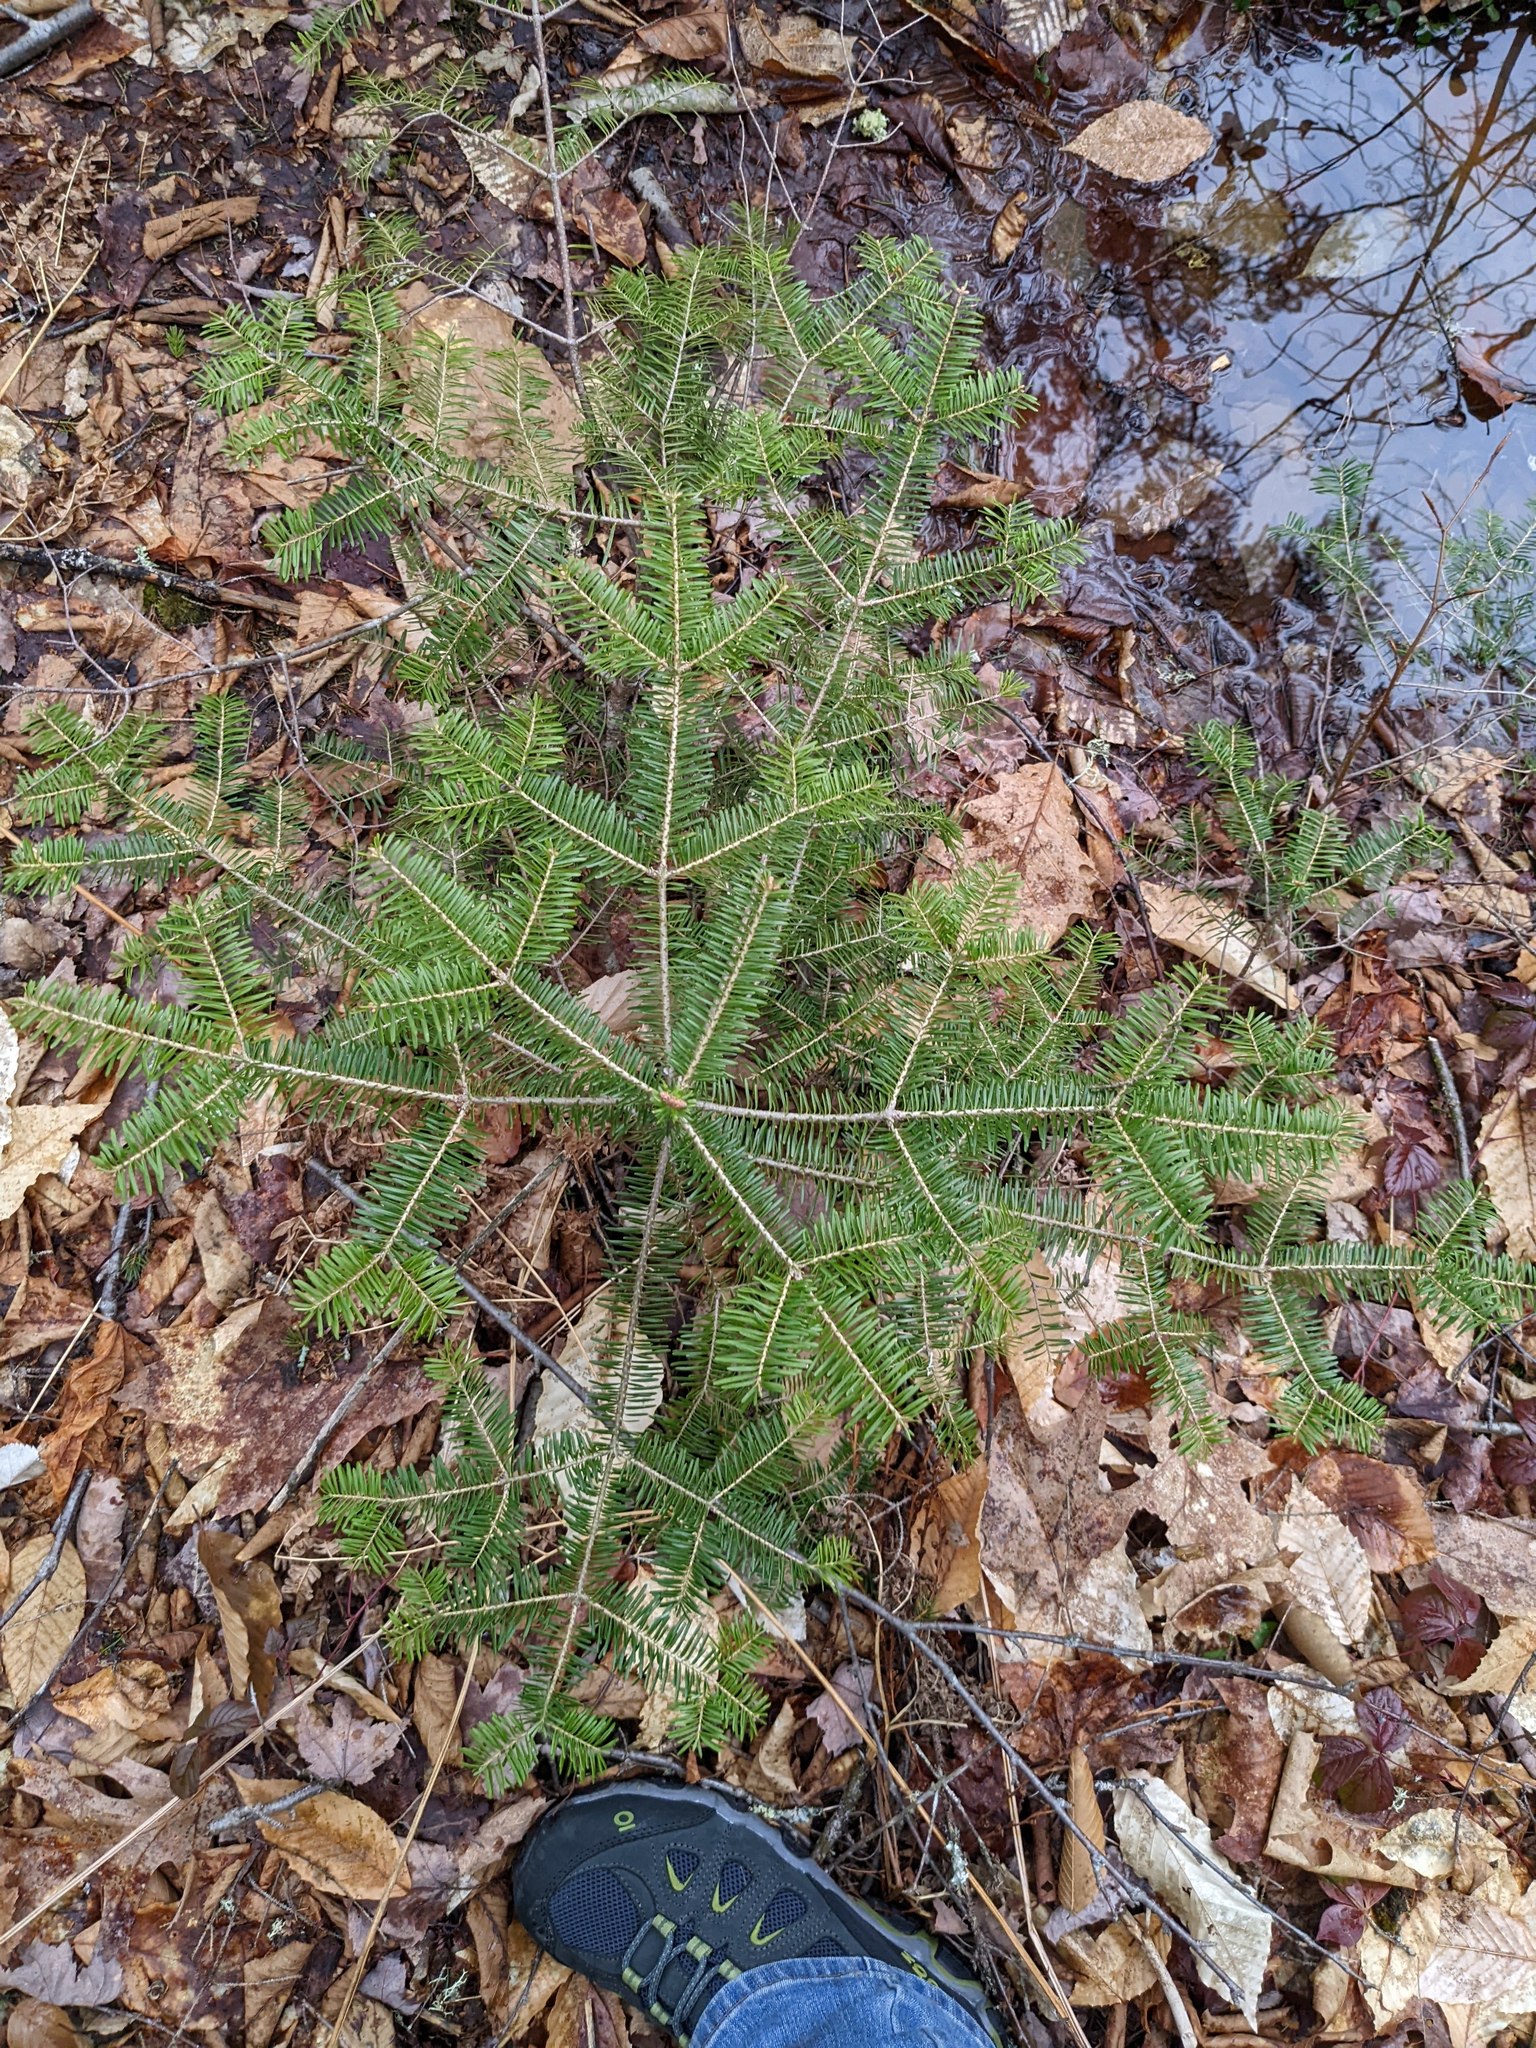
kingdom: Plantae
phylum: Tracheophyta
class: Pinopsida
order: Pinales
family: Pinaceae
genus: Abies
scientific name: Abies balsamea
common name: Balsam fir
